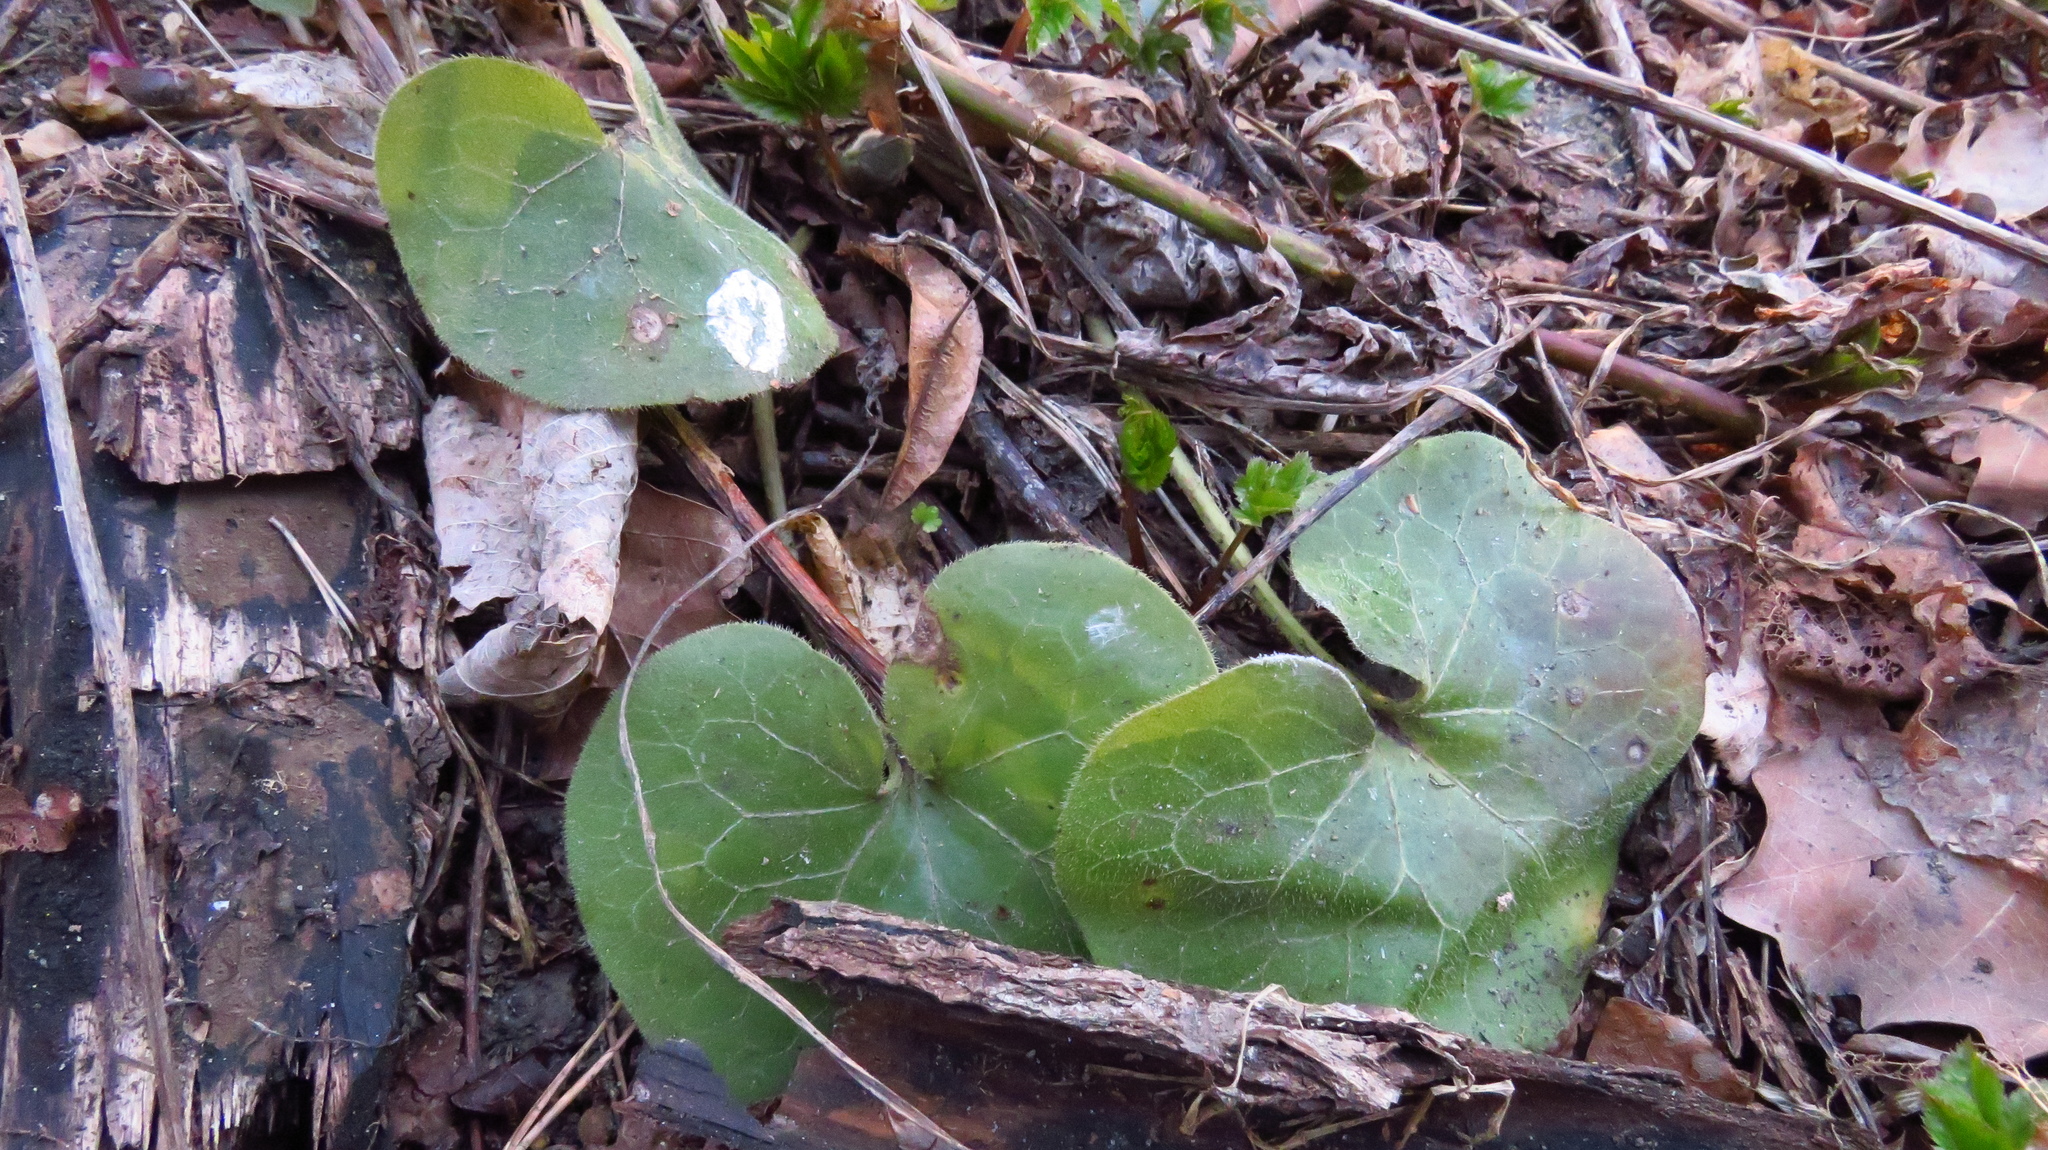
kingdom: Plantae
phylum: Tracheophyta
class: Magnoliopsida
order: Piperales
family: Aristolochiaceae
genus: Asarum
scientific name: Asarum europaeum
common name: Asarabacca
